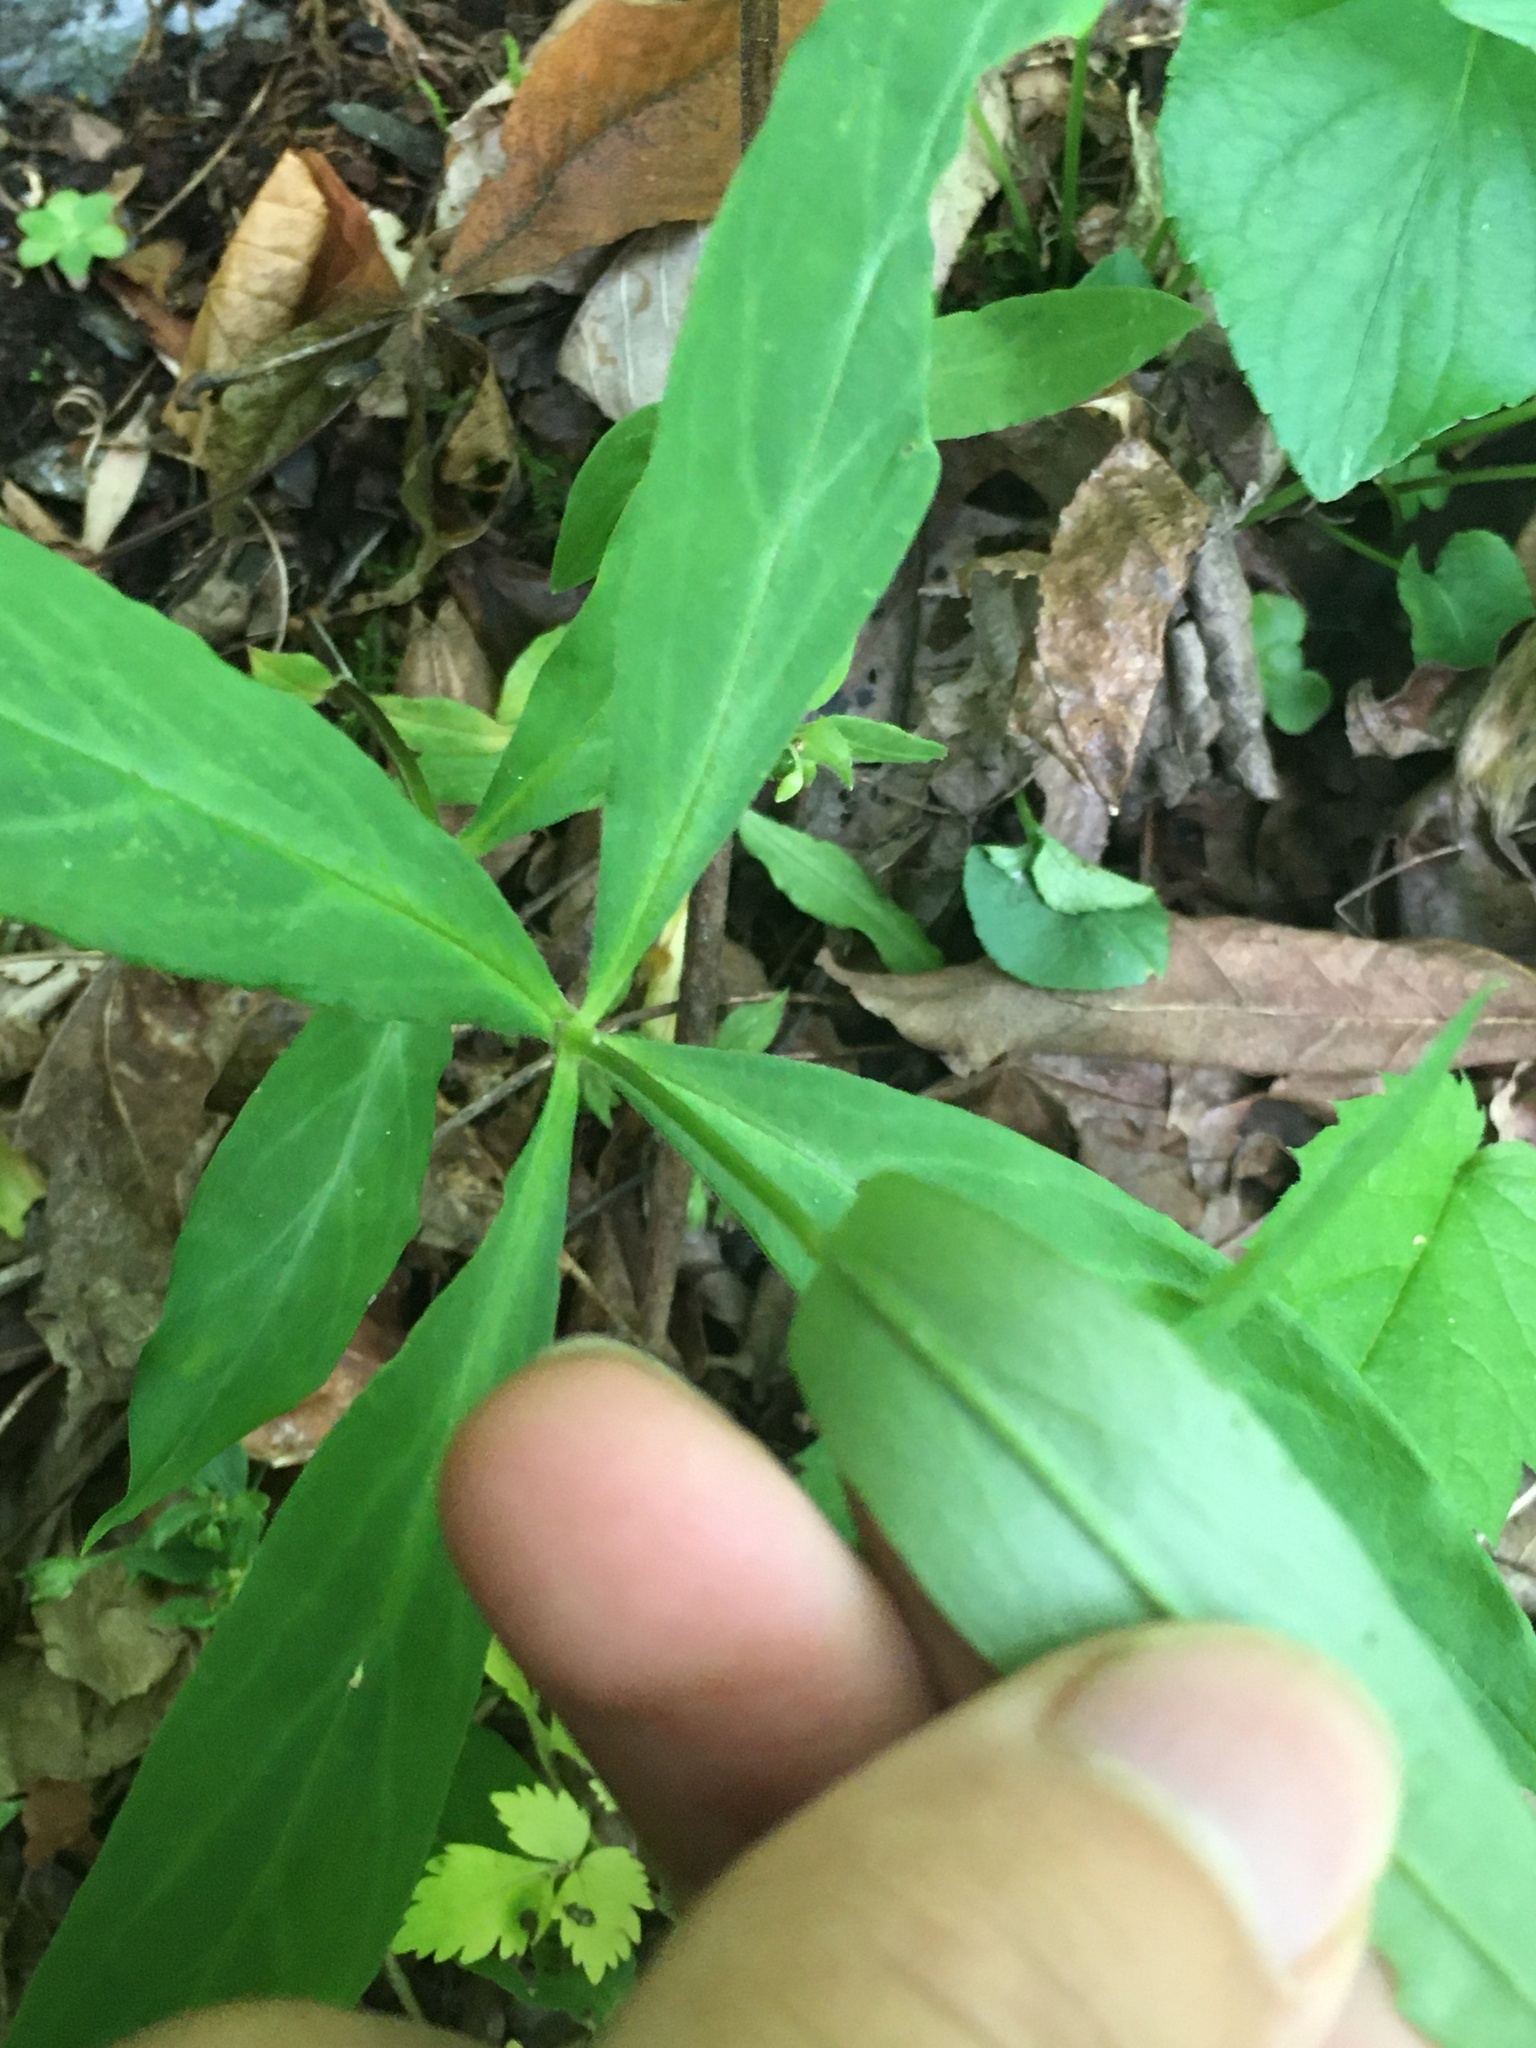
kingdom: Plantae
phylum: Tracheophyta
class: Magnoliopsida
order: Caryophyllales
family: Caryophyllaceae
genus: Stellaria
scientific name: Stellaria pubera
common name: Star chickweed
